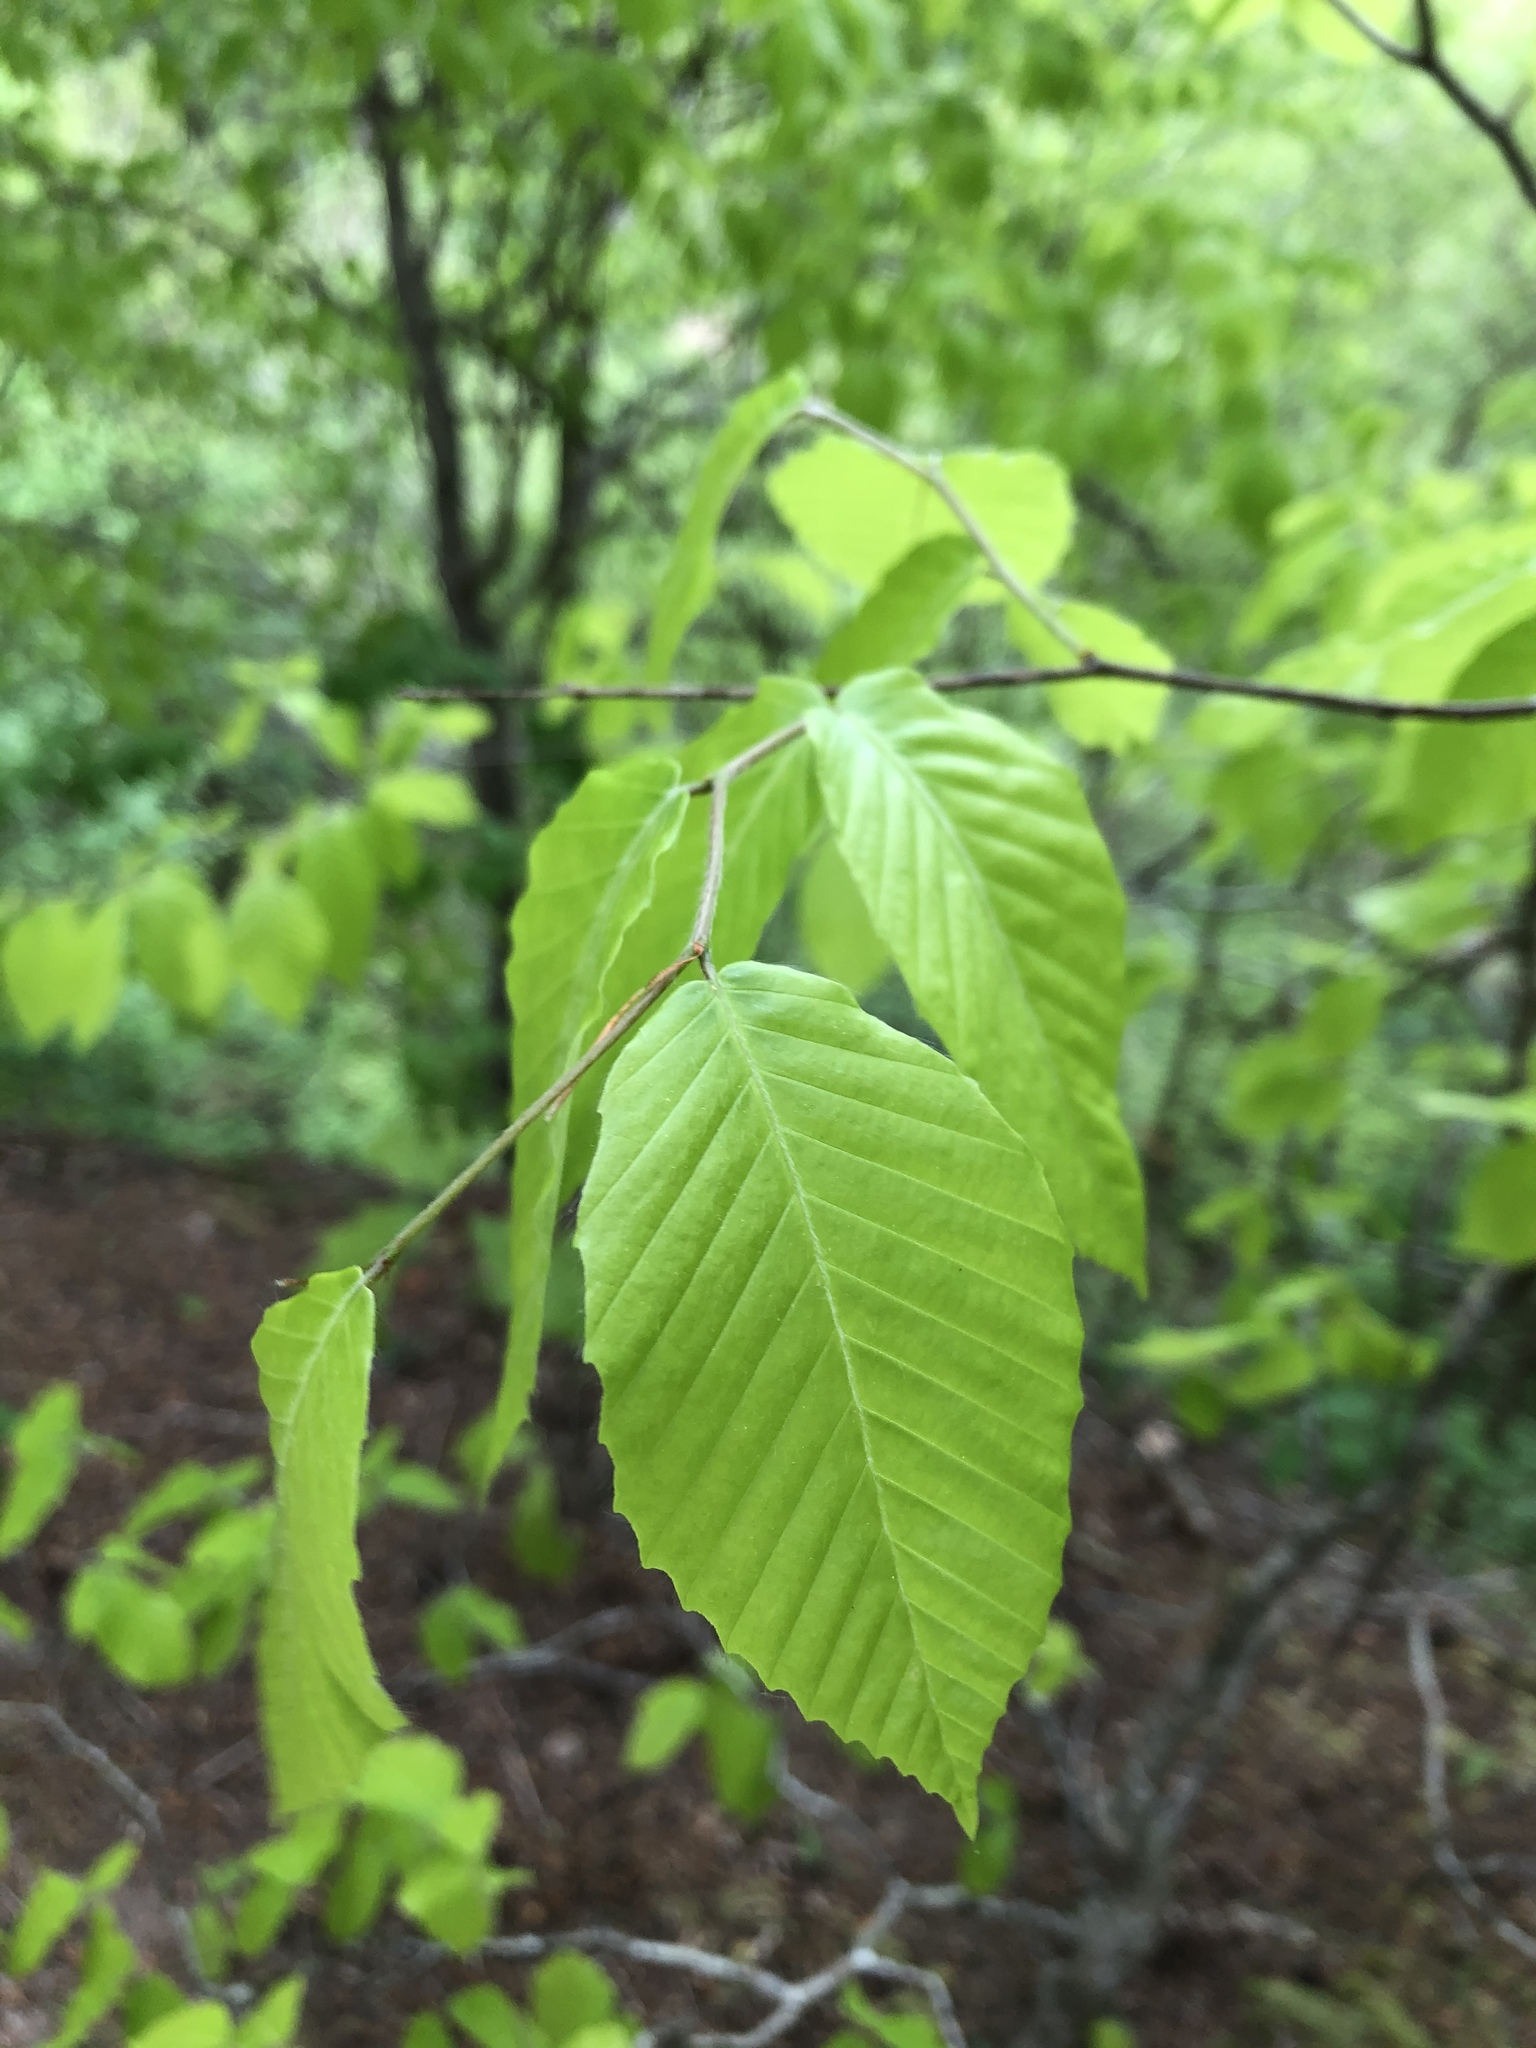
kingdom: Plantae
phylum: Tracheophyta
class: Magnoliopsida
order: Fagales
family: Fagaceae
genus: Fagus
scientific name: Fagus grandifolia
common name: American beech
